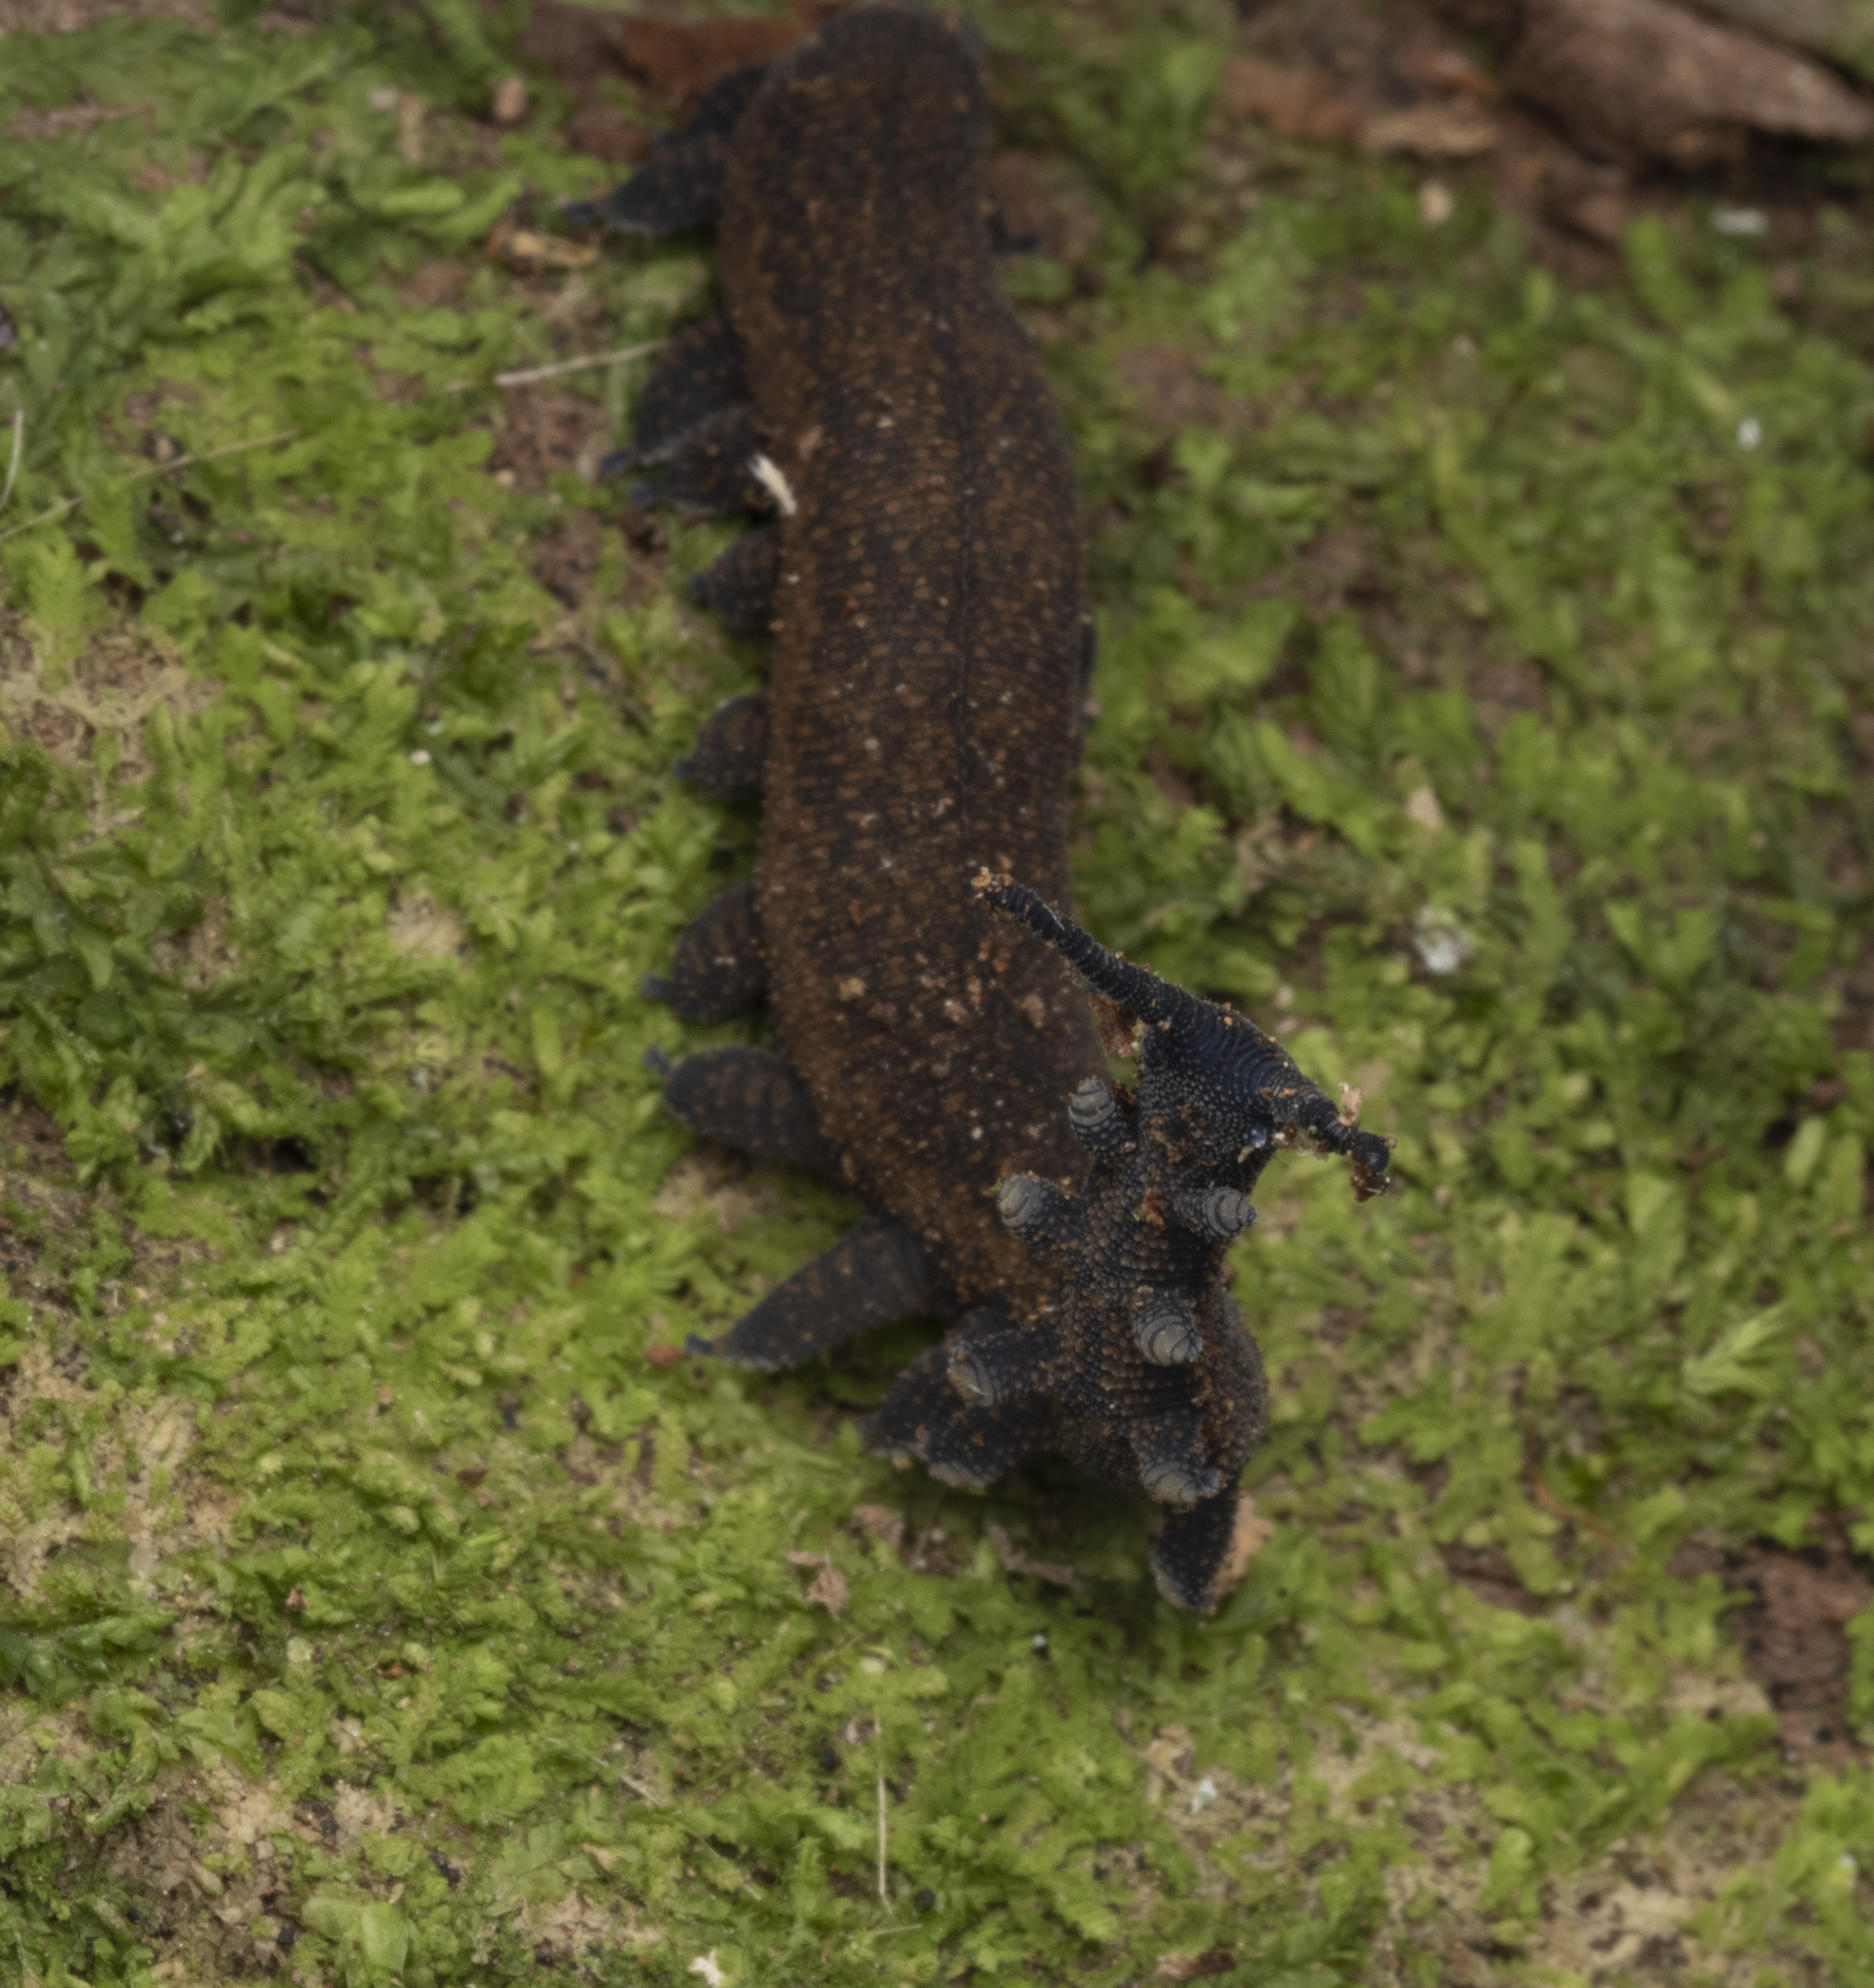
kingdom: Animalia
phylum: Onychophora
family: Peripatopsidae
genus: Peripatoides
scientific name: Peripatoides
